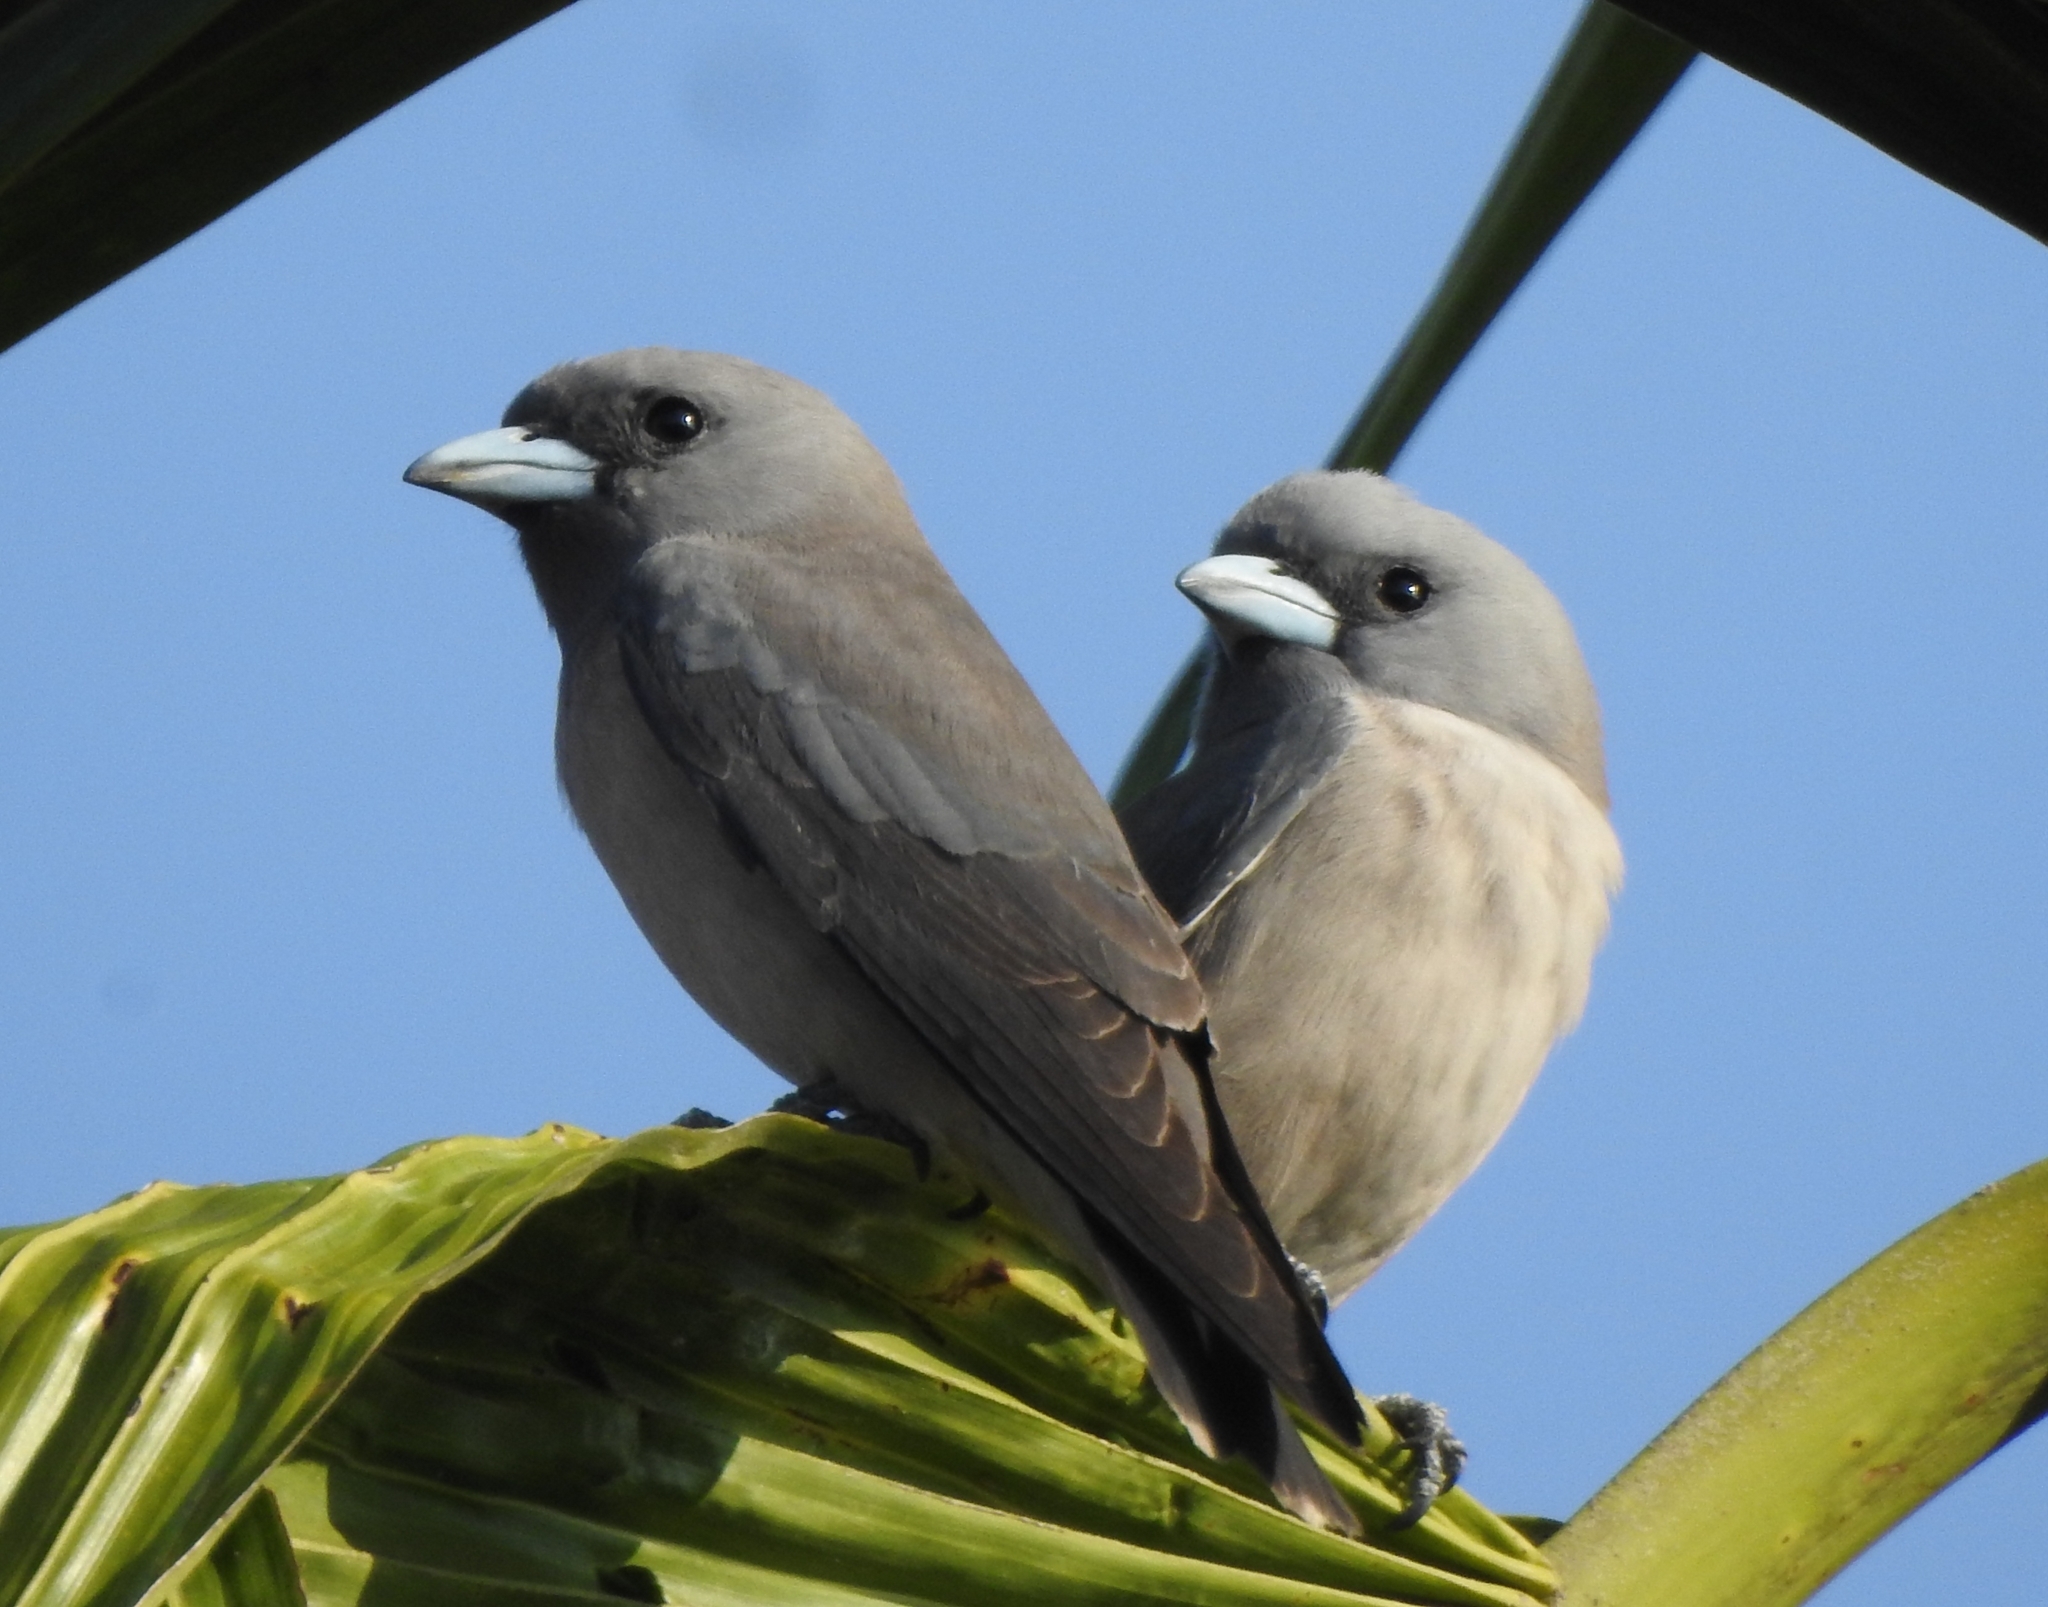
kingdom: Animalia
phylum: Chordata
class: Aves
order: Passeriformes
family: Artamidae
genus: Artamus
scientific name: Artamus fuscus
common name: Ashy woodswallow
